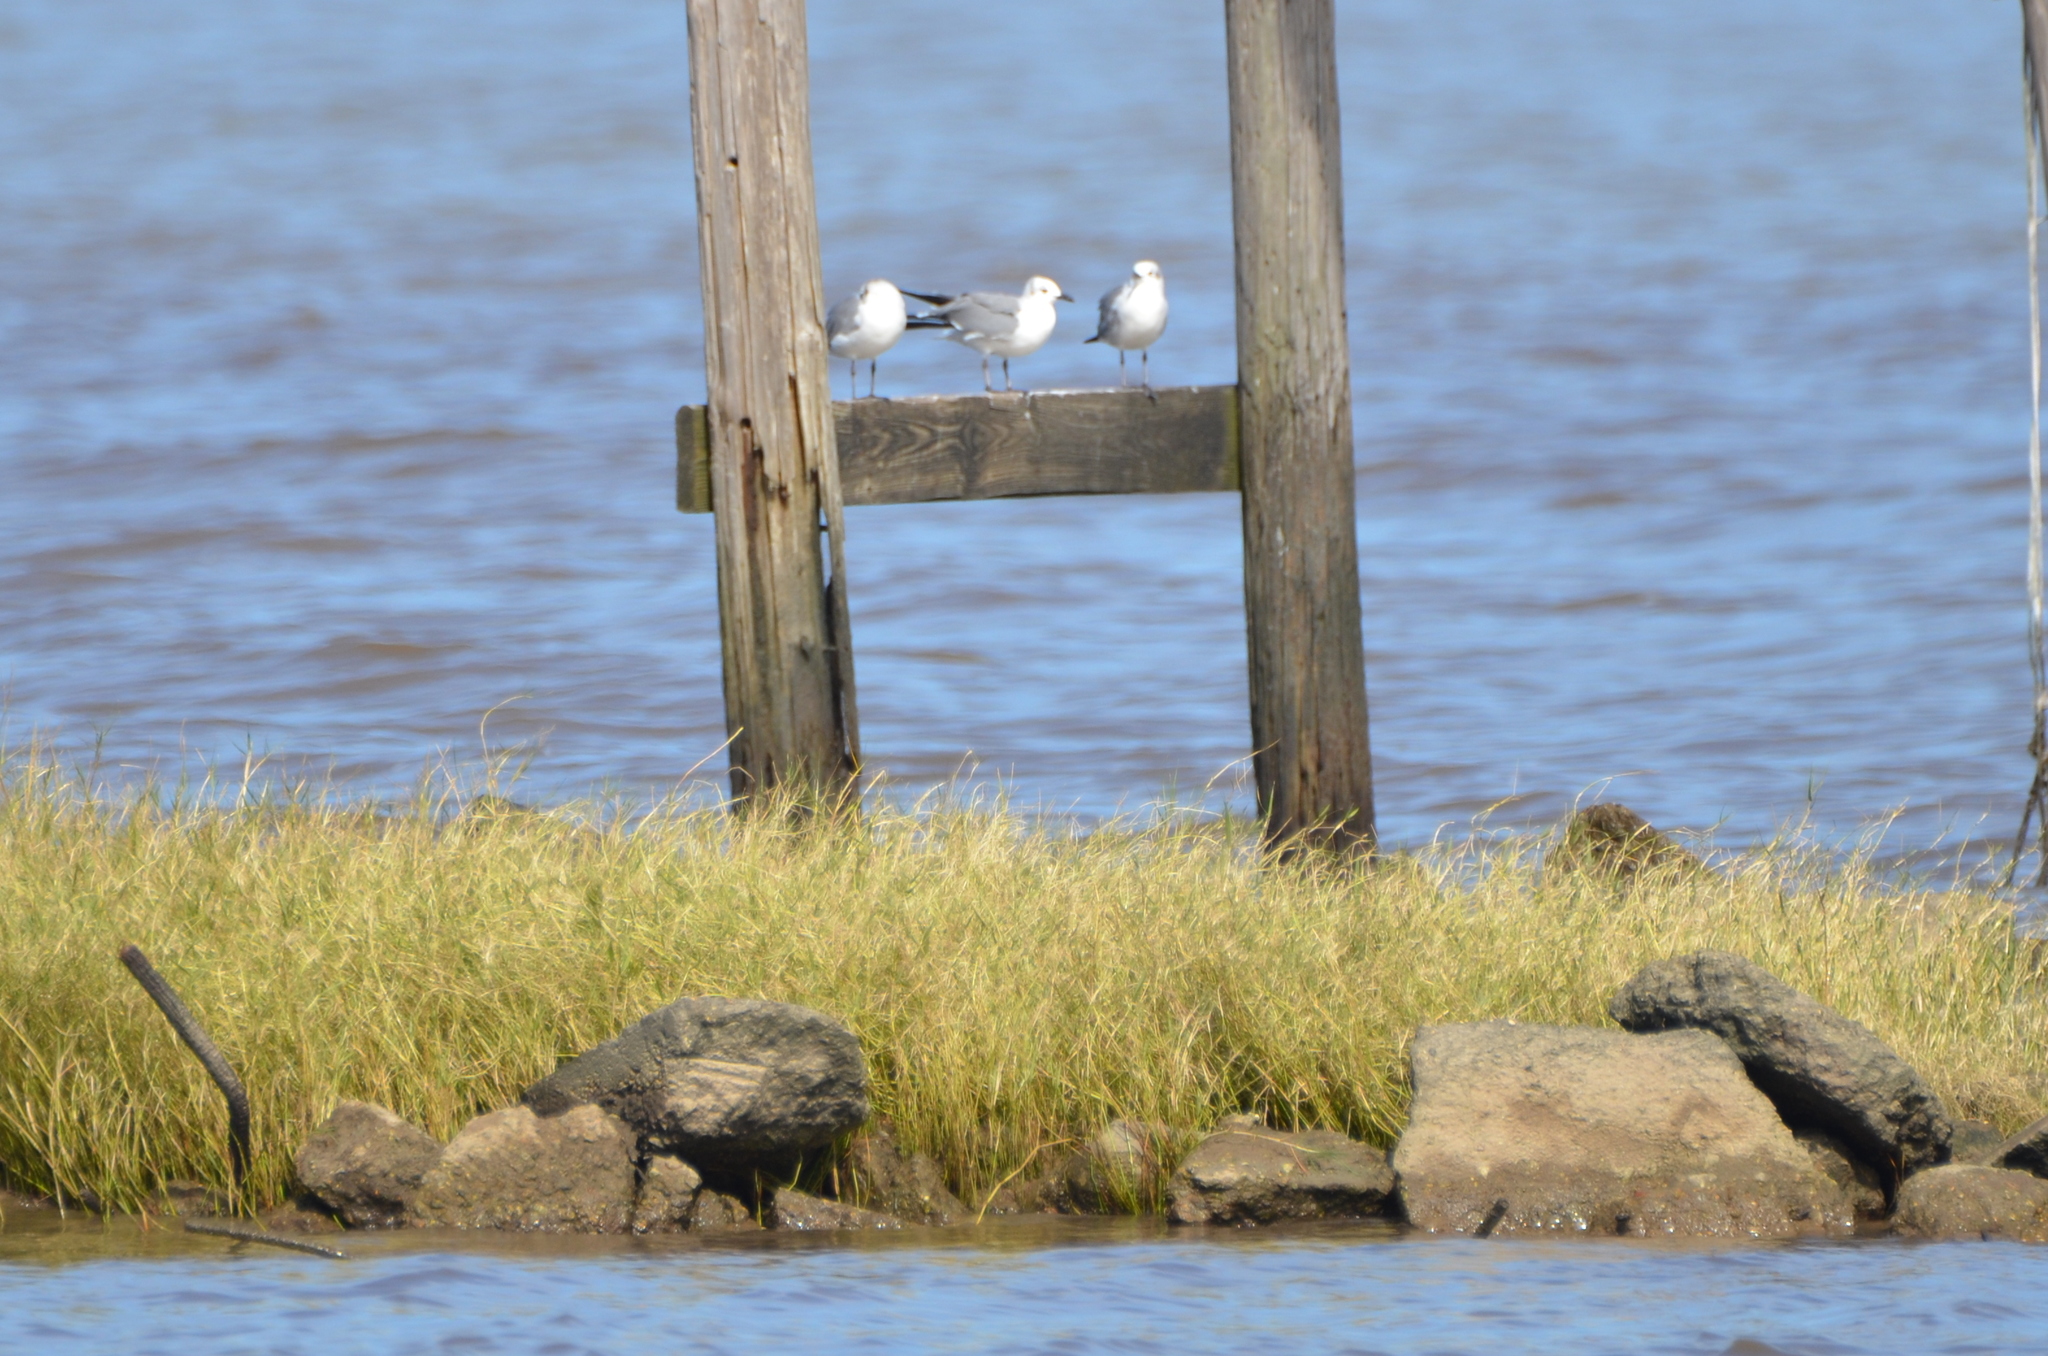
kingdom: Animalia
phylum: Chordata
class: Aves
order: Charadriiformes
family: Laridae
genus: Leucophaeus
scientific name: Leucophaeus atricilla
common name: Laughing gull
